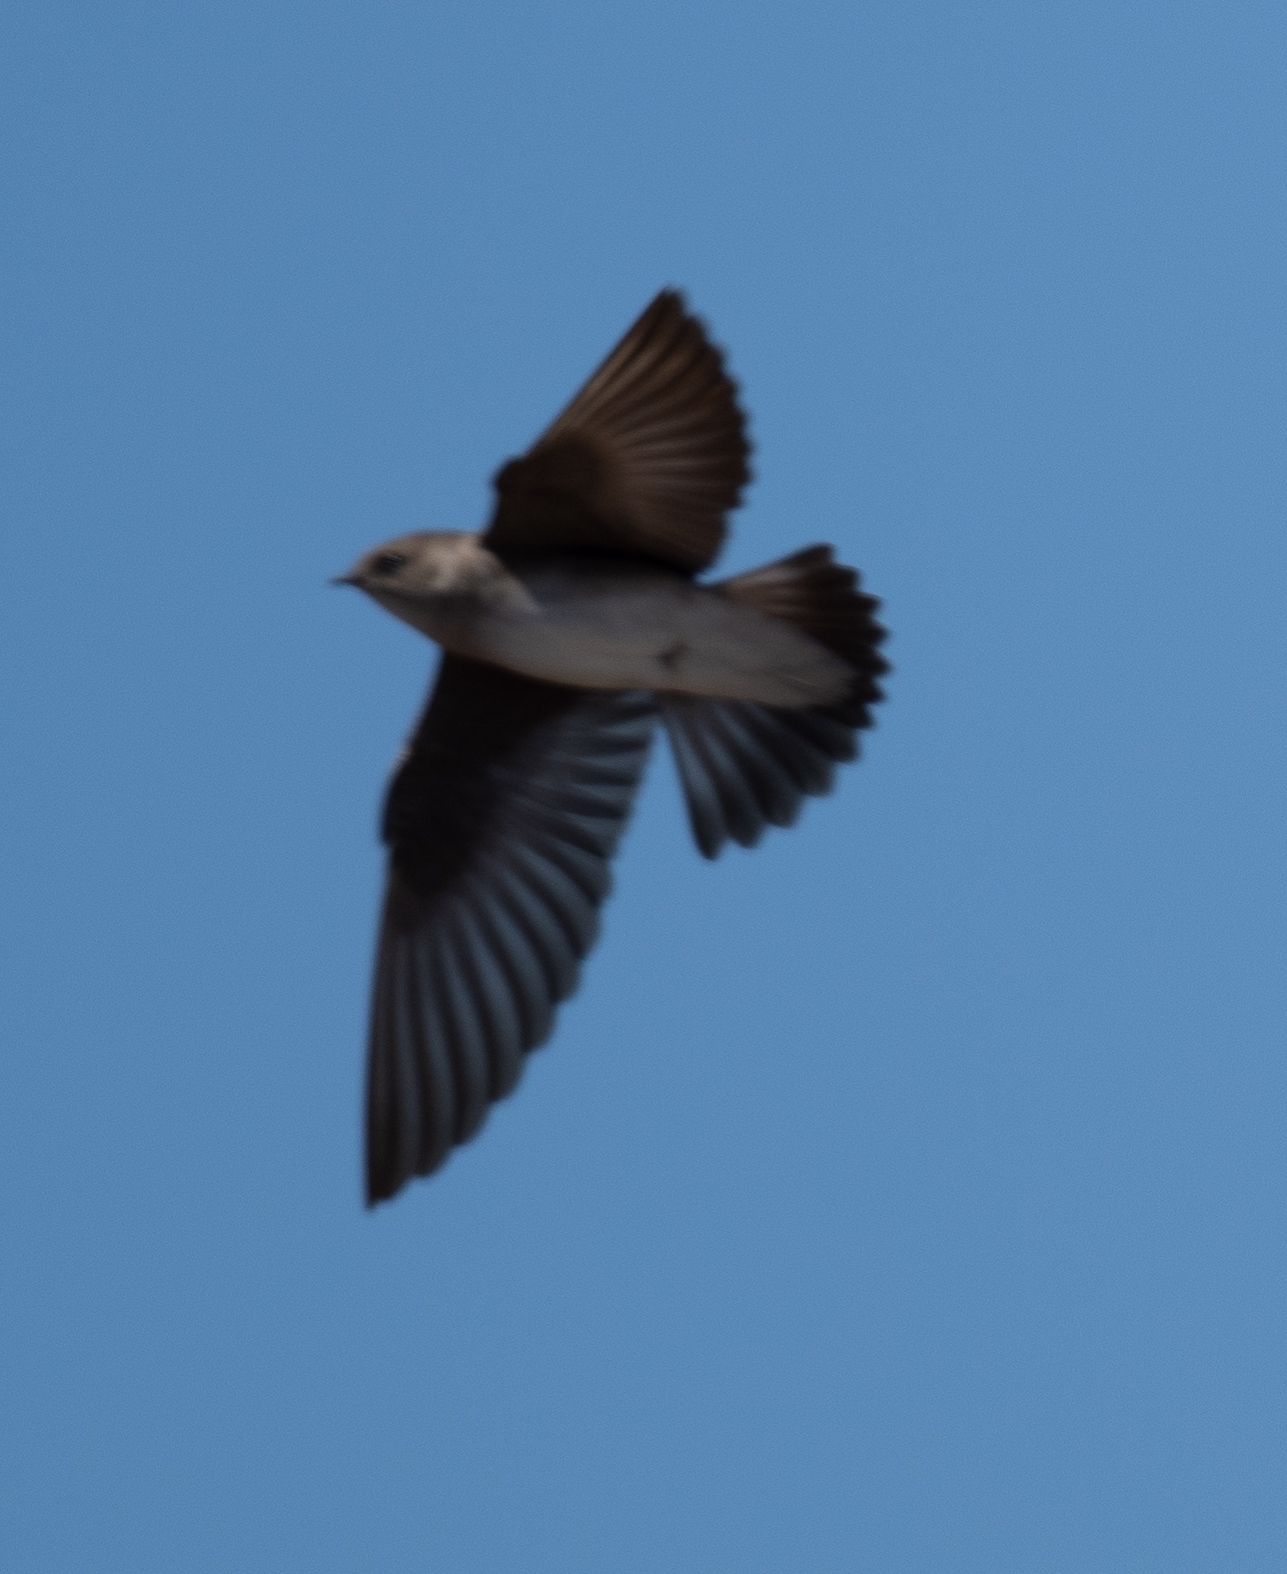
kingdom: Animalia
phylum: Chordata
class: Aves
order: Passeriformes
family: Hirundinidae
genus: Stelgidopteryx
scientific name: Stelgidopteryx serripennis
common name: Northern rough-winged swallow
